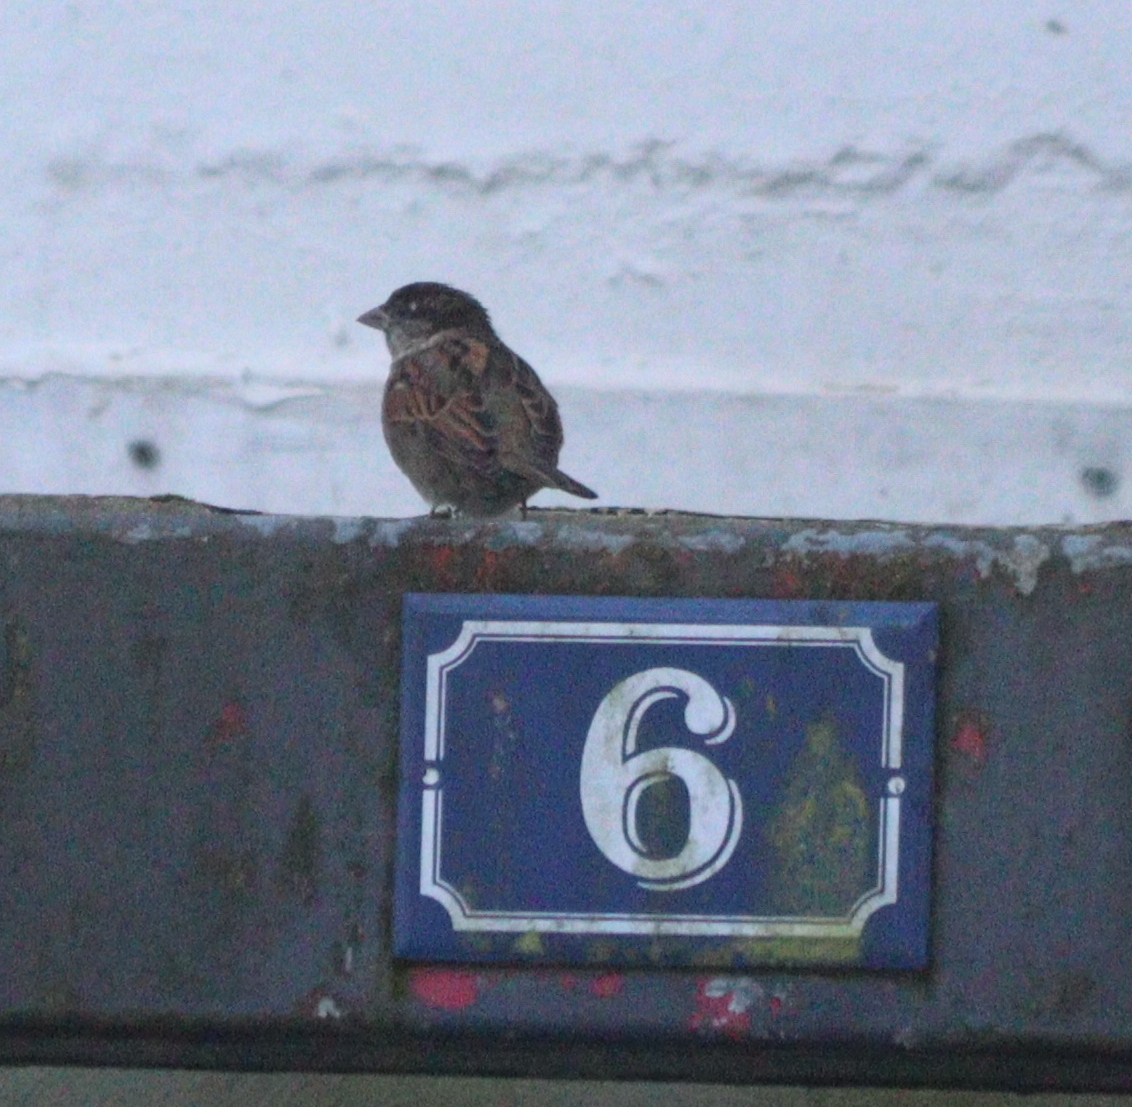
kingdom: Animalia
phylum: Chordata
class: Aves
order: Passeriformes
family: Passeridae
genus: Passer
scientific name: Passer domesticus
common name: House sparrow
